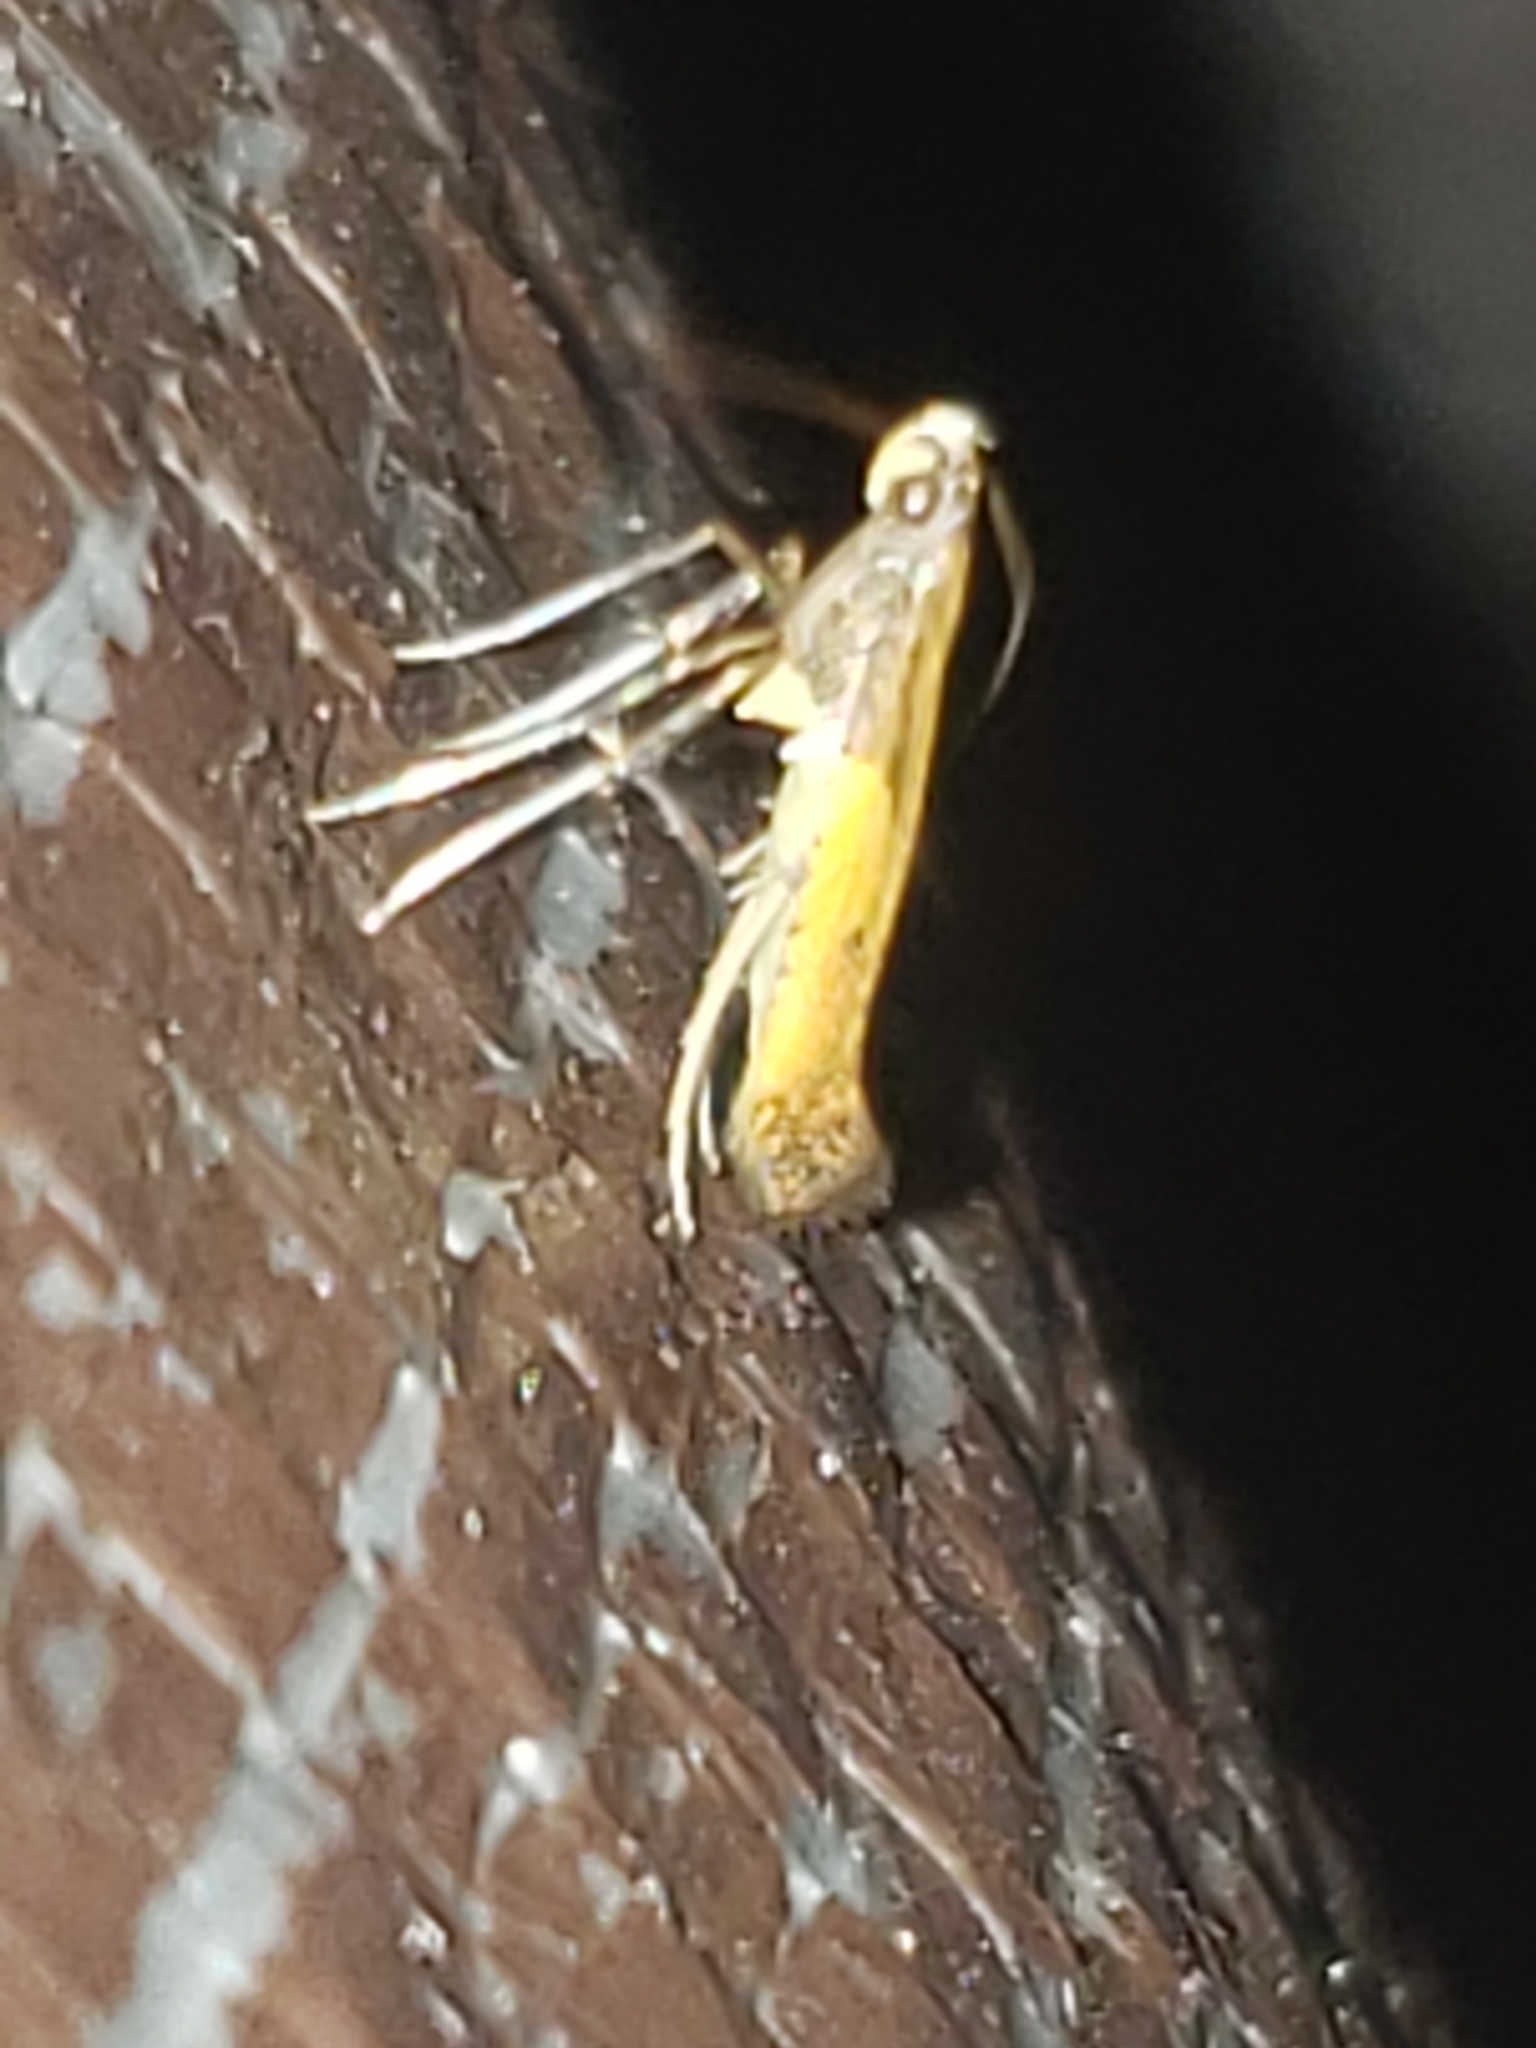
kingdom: Animalia
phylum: Arthropoda
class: Insecta
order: Lepidoptera
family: Gracillariidae
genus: Caloptilia
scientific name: Caloptilia azaleella
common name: Azalea leafminer
